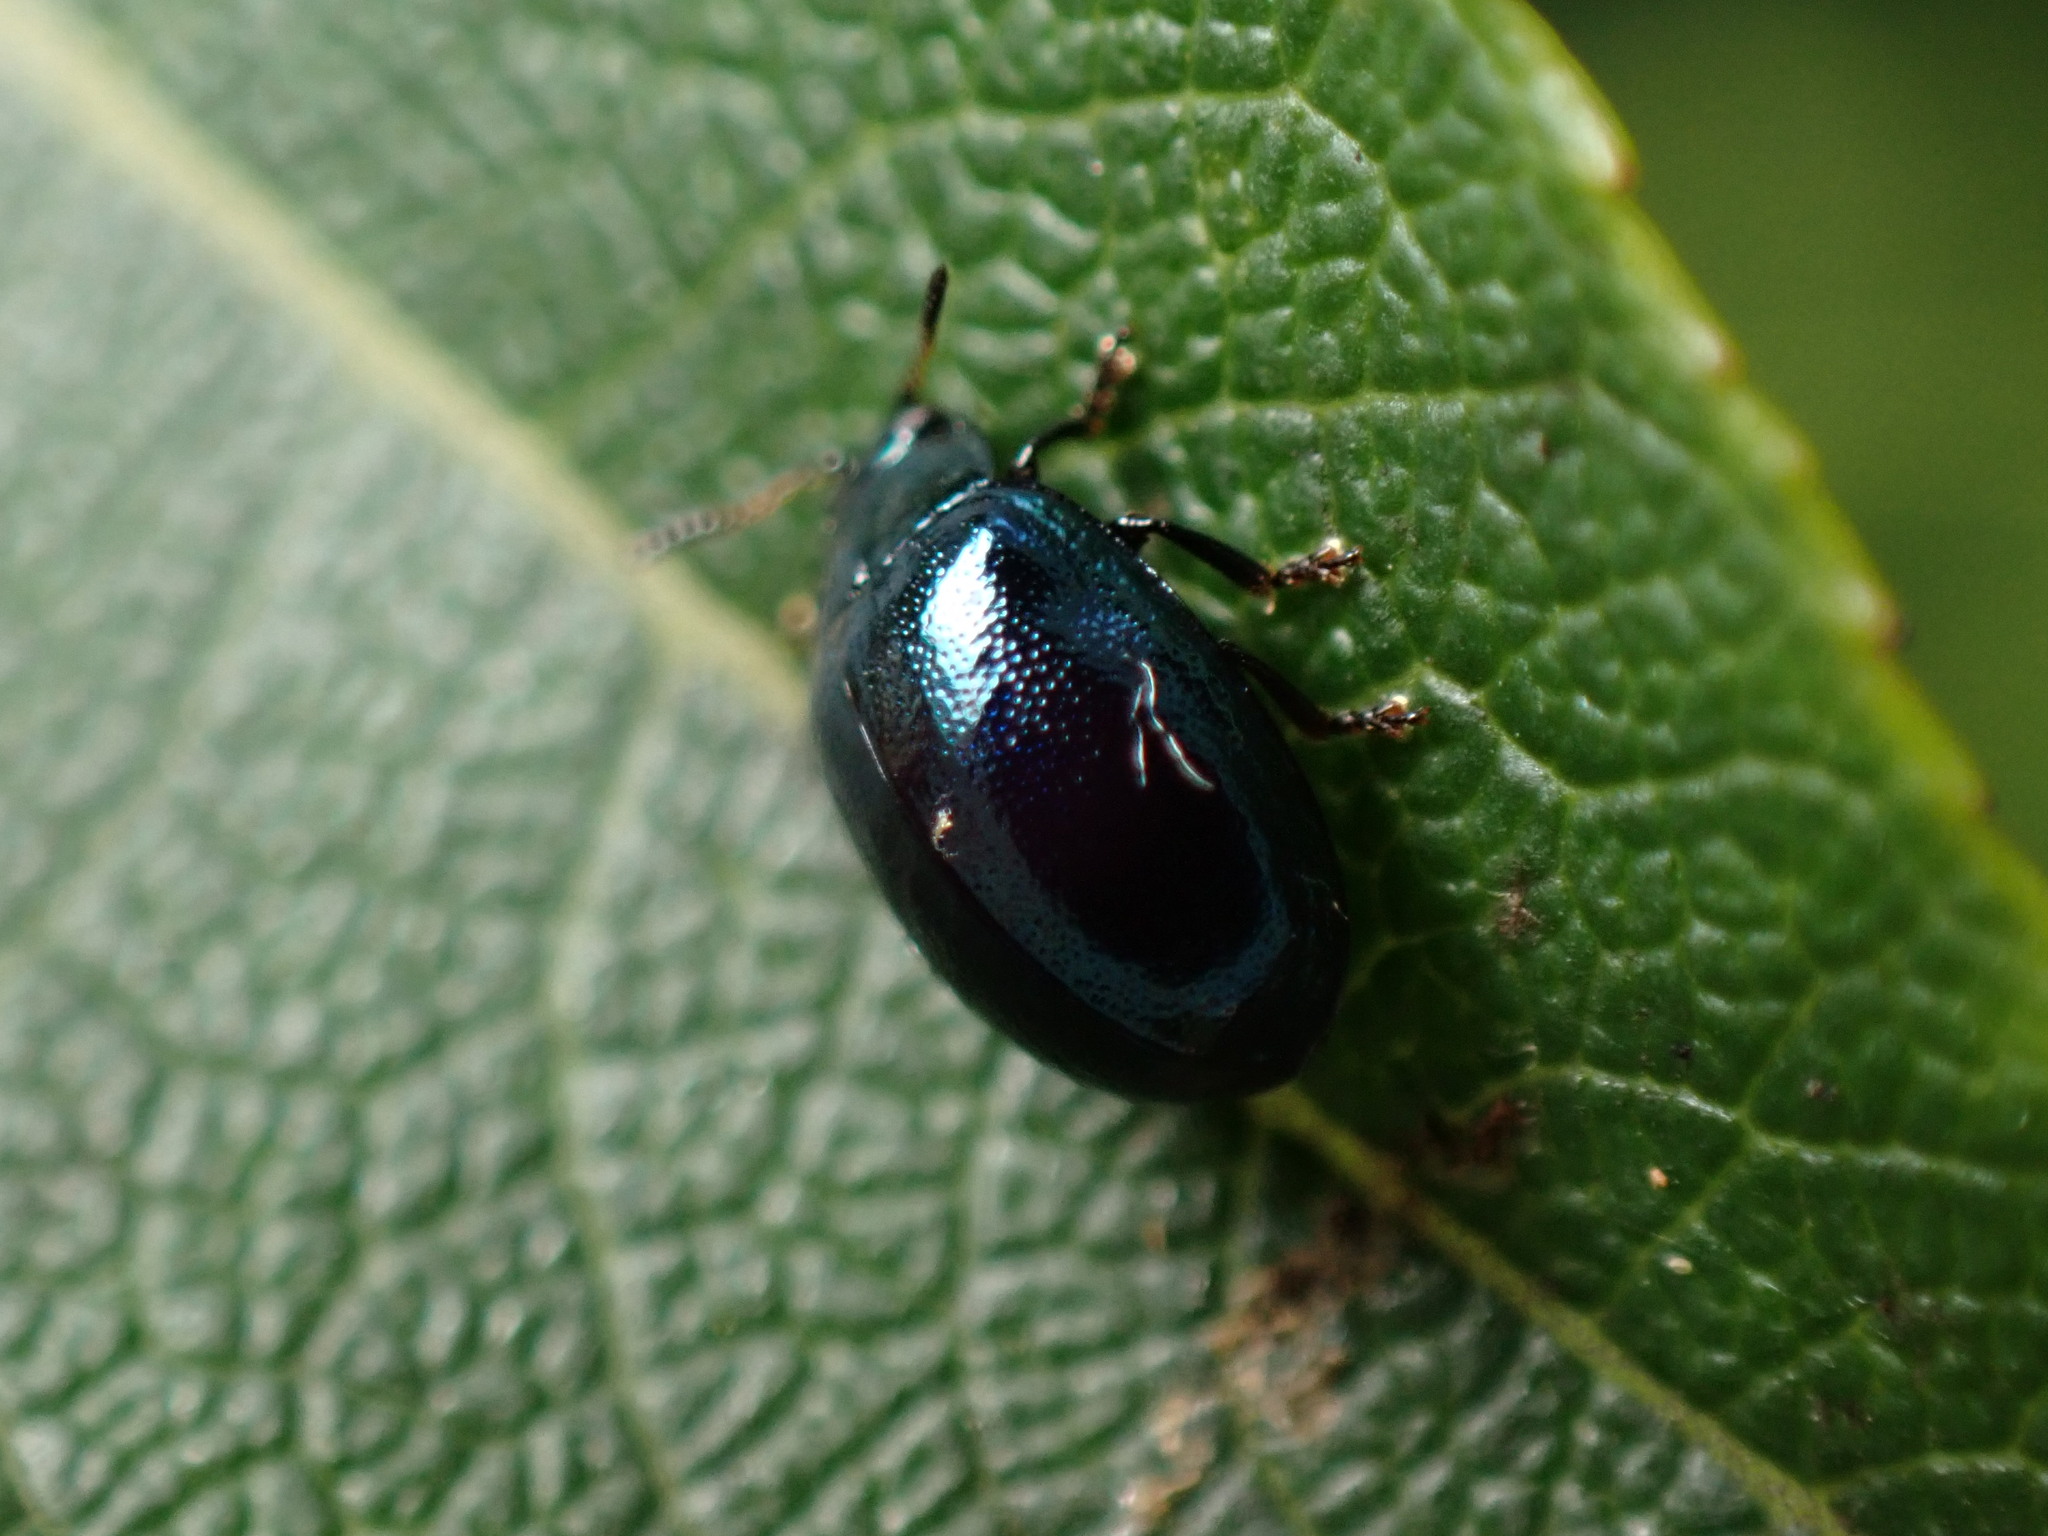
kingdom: Animalia
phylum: Arthropoda
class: Insecta
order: Coleoptera
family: Chrysomelidae
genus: Plagiodera
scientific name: Plagiodera versicolora
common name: Imported willow leaf beetle
